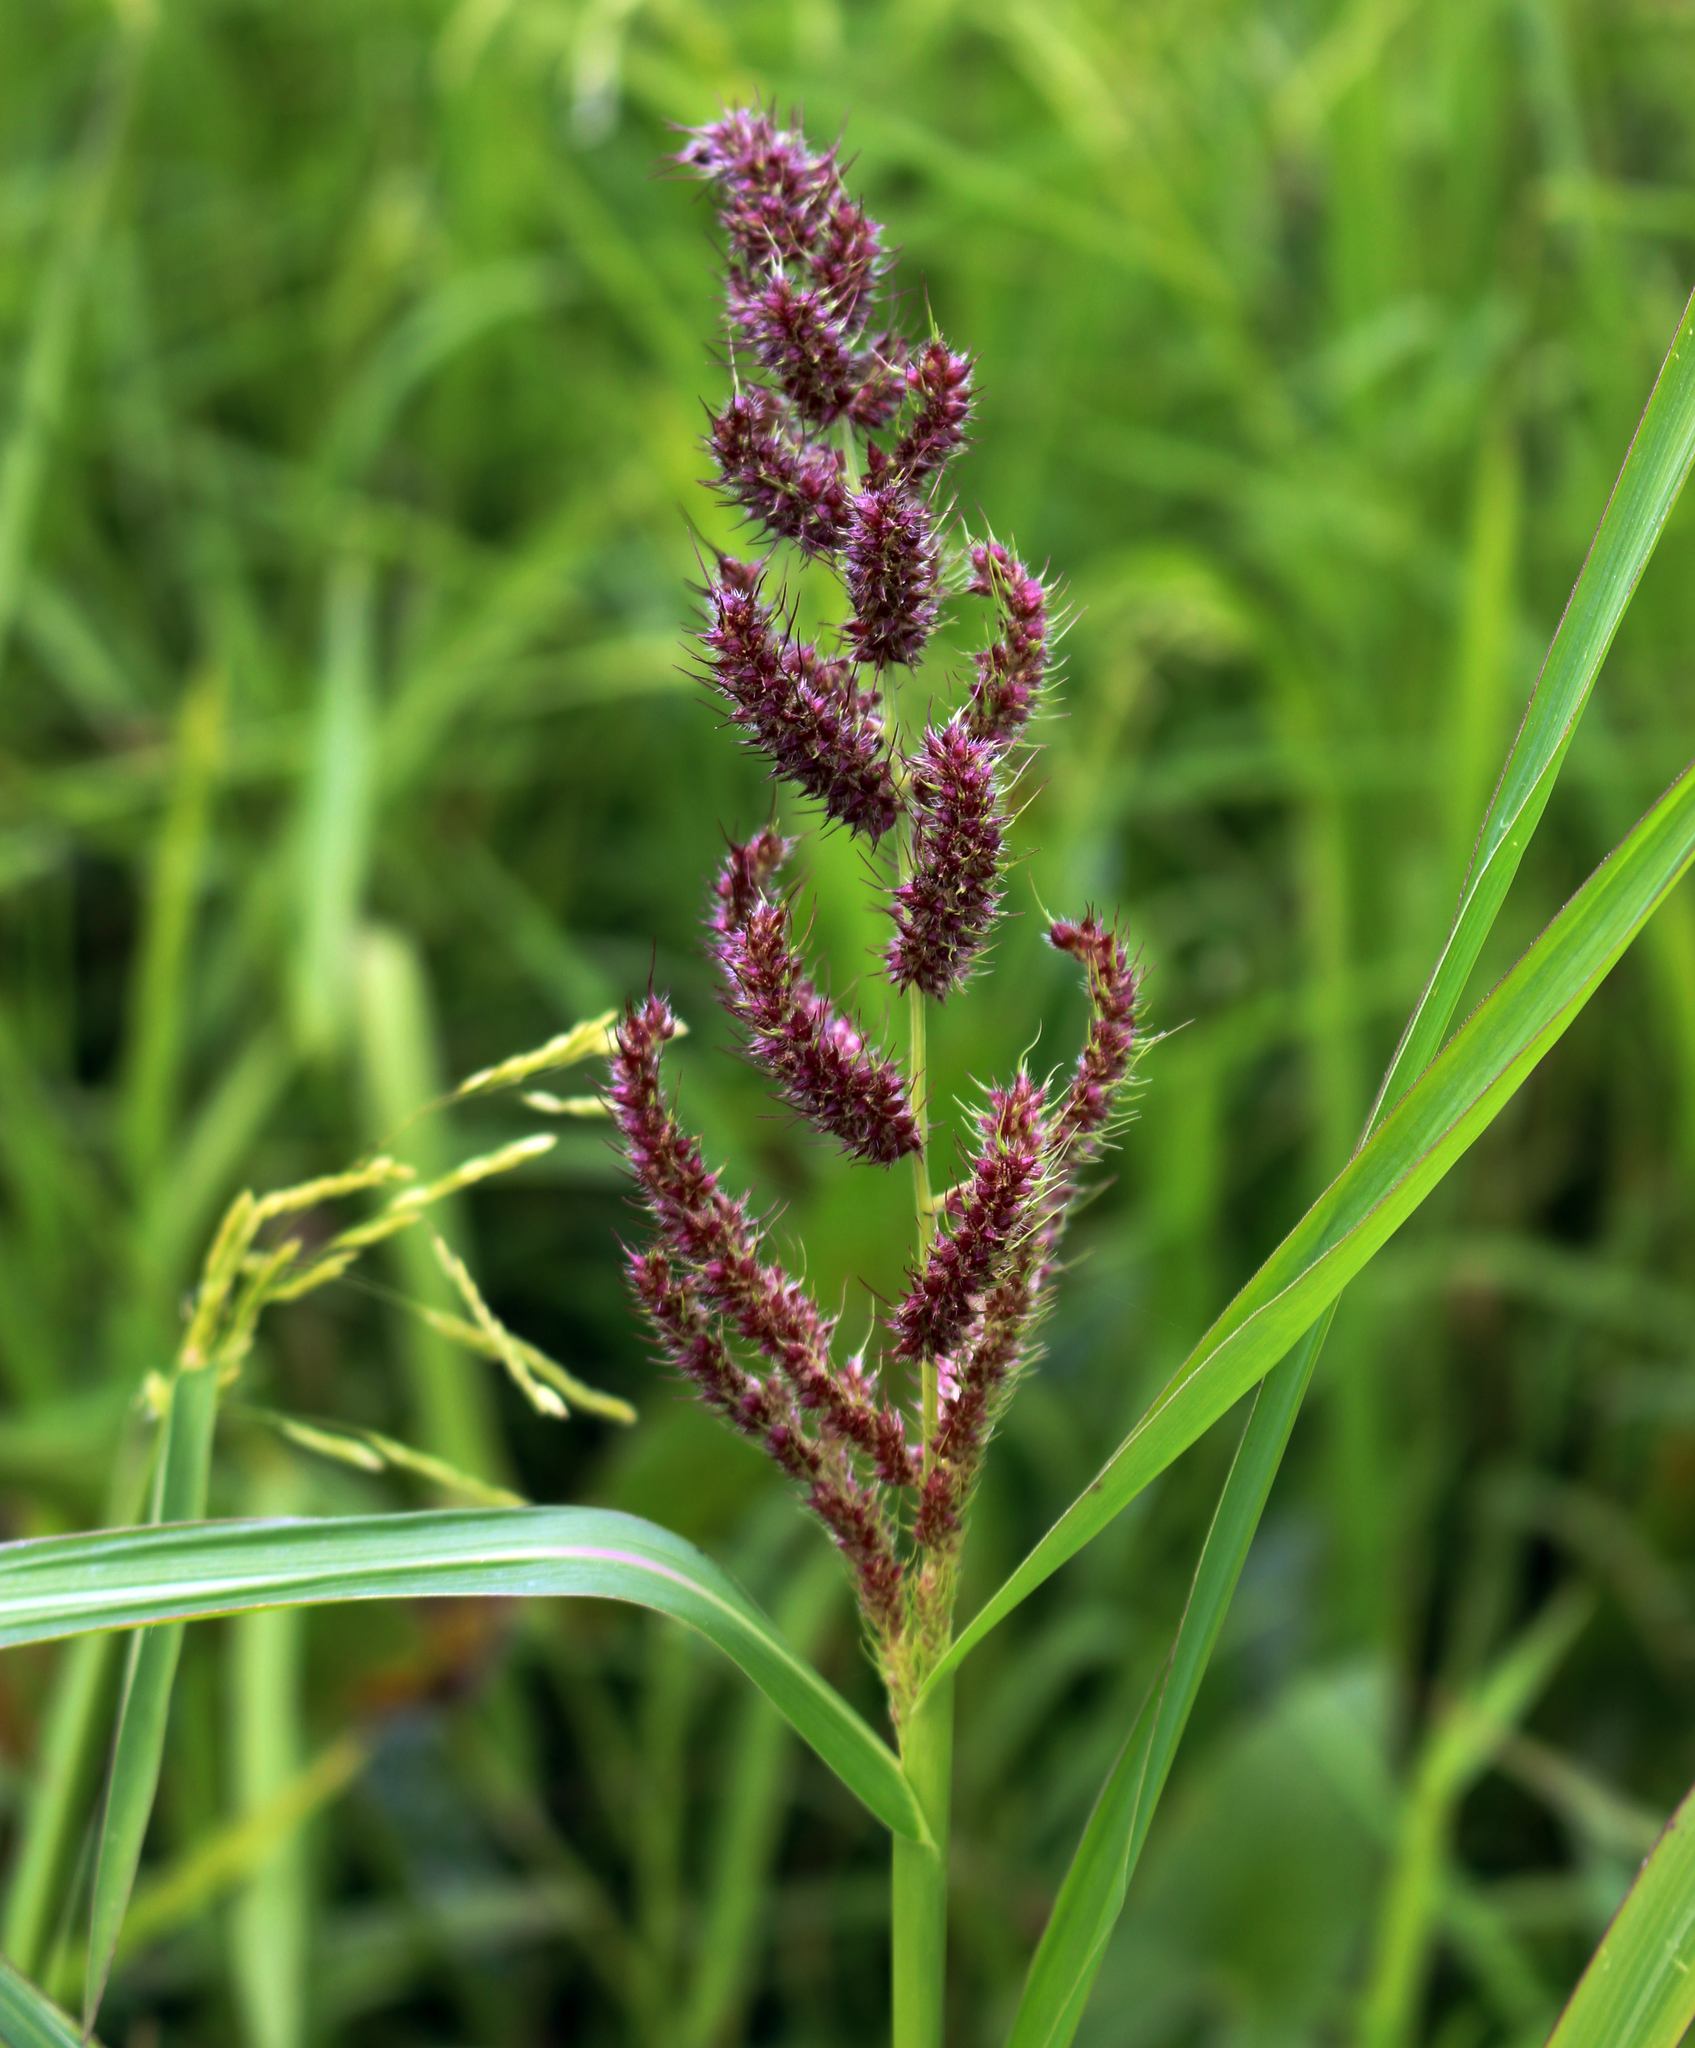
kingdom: Plantae
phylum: Tracheophyta
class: Liliopsida
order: Poales
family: Poaceae
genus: Echinochloa
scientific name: Echinochloa crus-galli
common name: Cockspur
